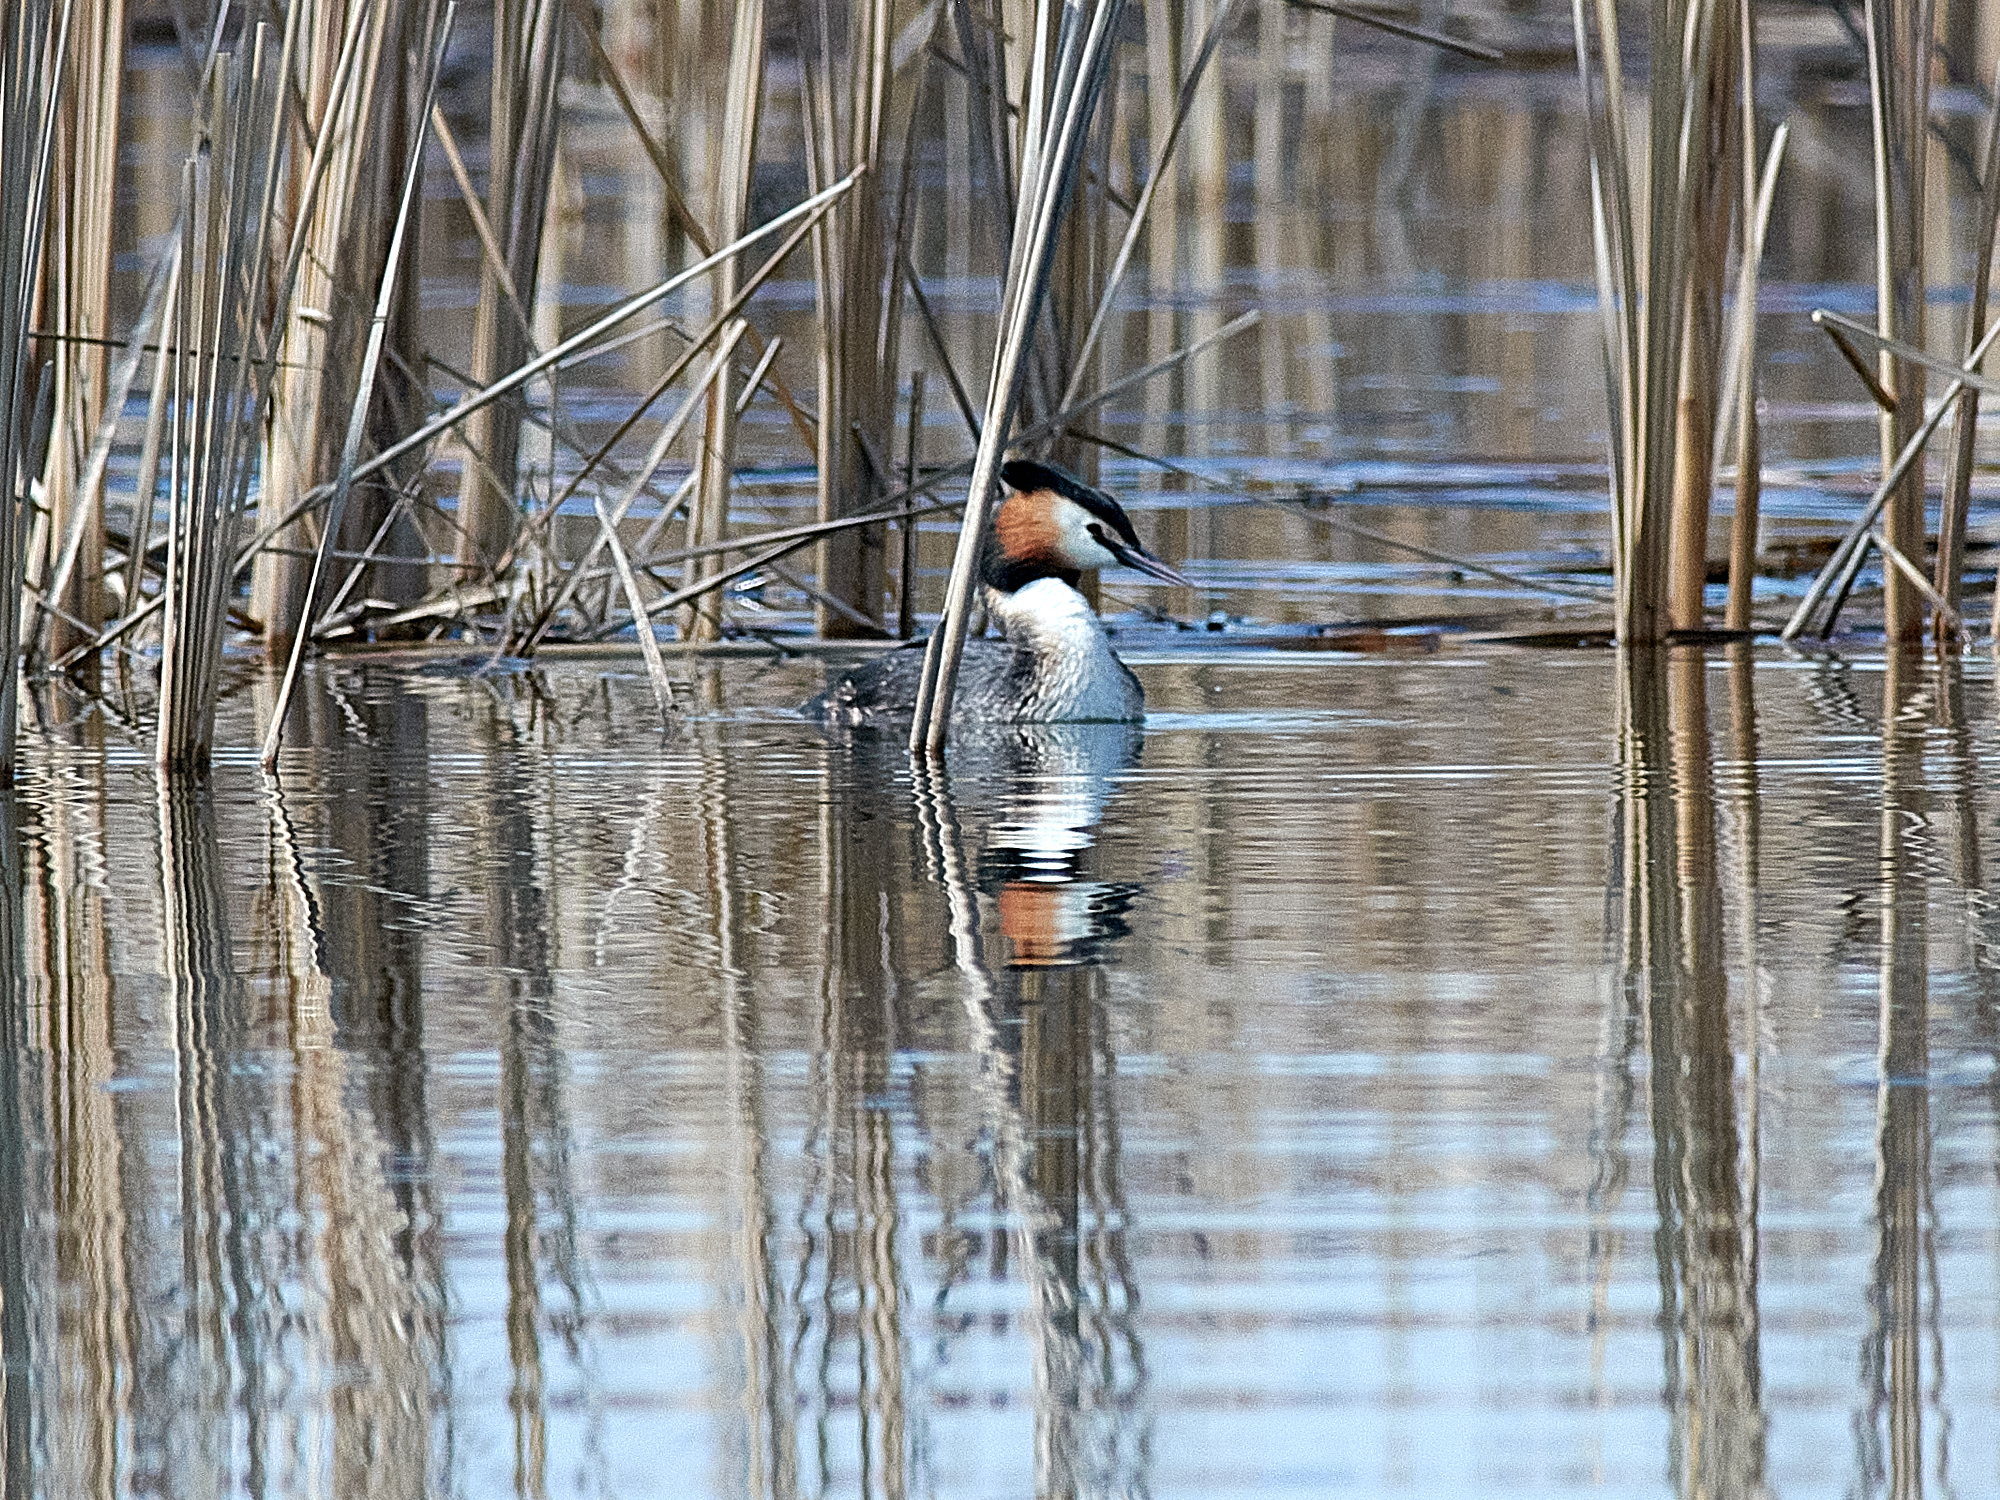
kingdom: Animalia
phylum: Chordata
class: Aves
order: Podicipediformes
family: Podicipedidae
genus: Podiceps
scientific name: Podiceps cristatus
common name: Great crested grebe
